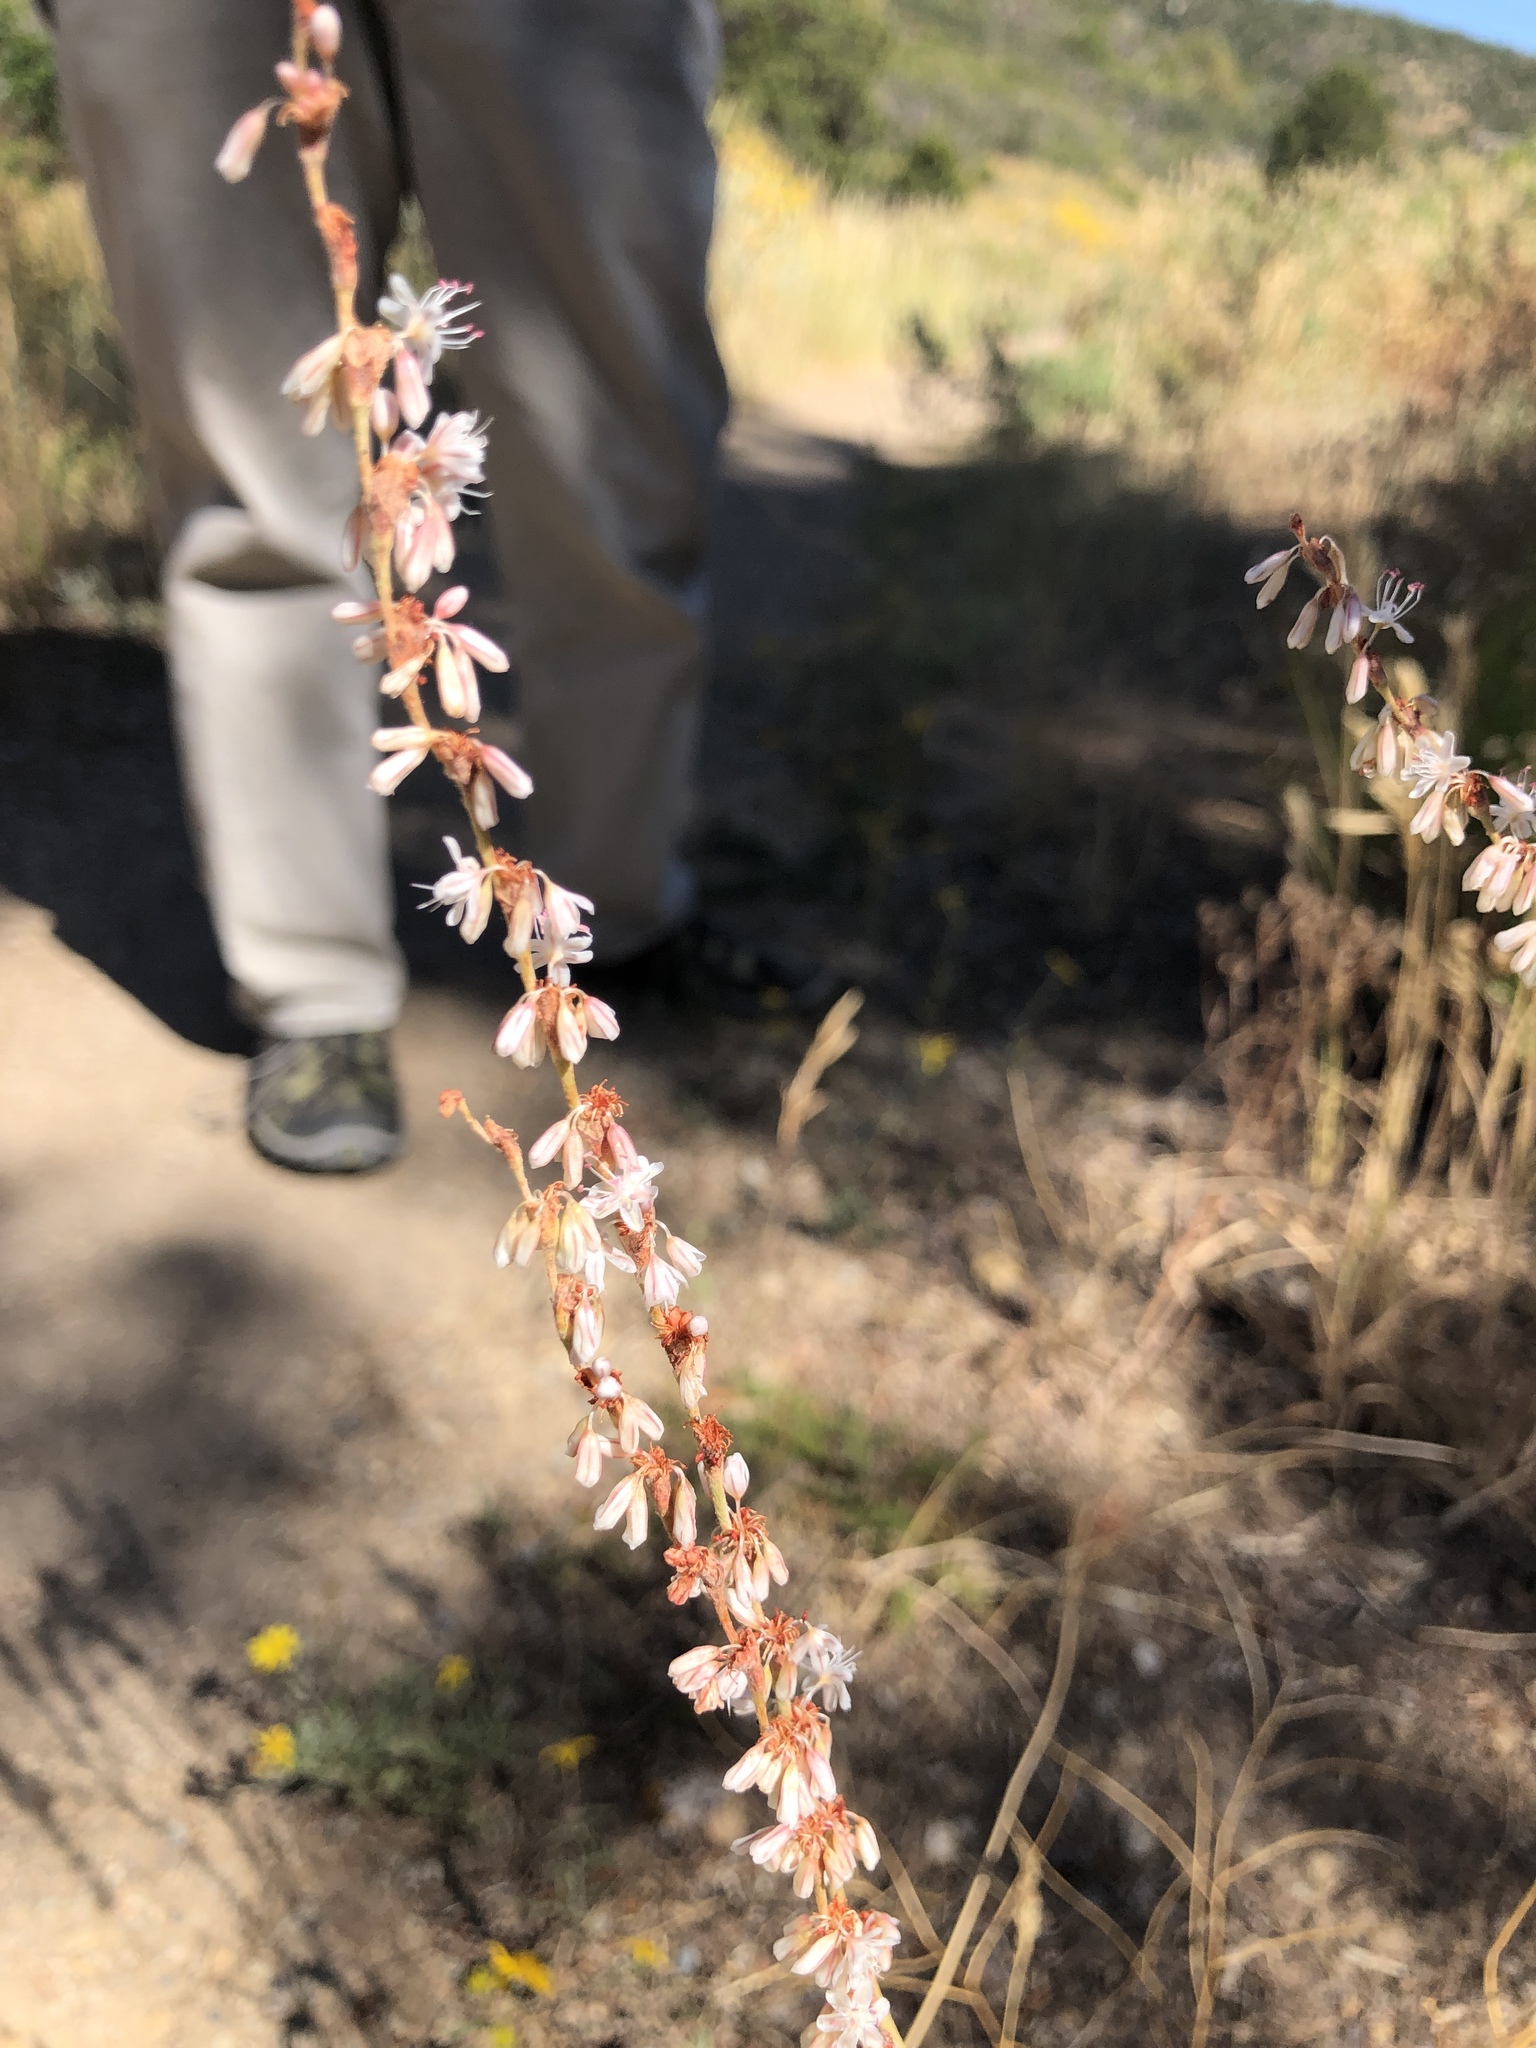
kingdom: Plantae
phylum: Tracheophyta
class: Magnoliopsida
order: Caryophyllales
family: Polygonaceae
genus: Eriogonum
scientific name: Eriogonum racemosum
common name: Redroot wild buckwheat
